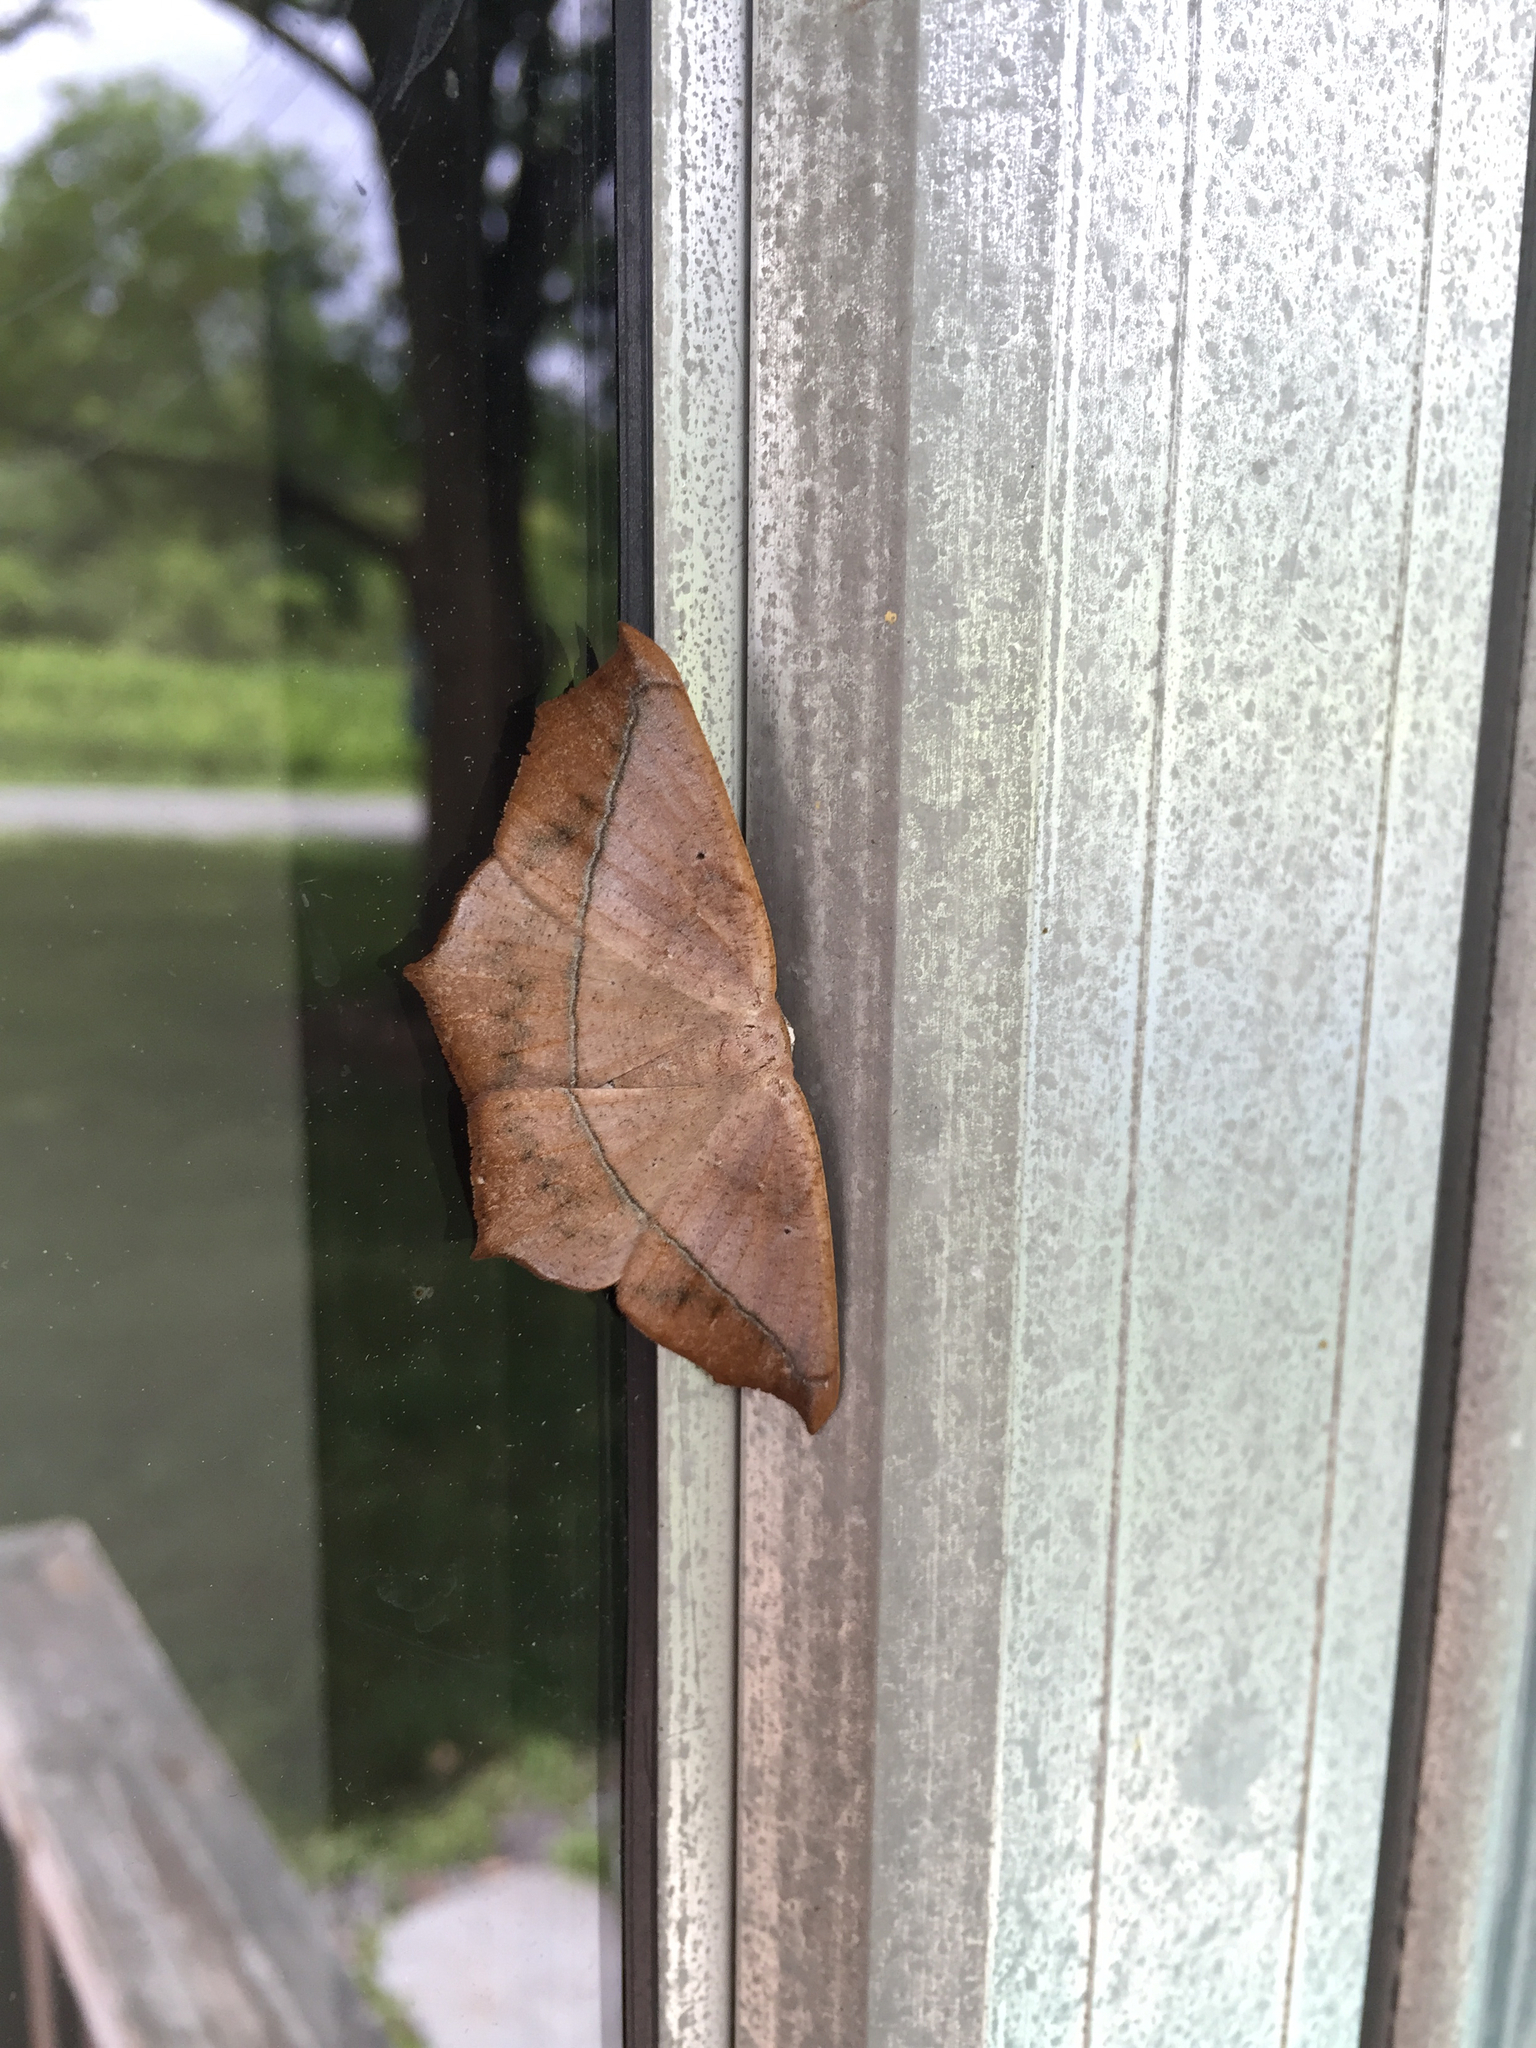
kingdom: Animalia
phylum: Arthropoda
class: Insecta
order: Lepidoptera
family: Geometridae
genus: Prochoerodes
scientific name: Prochoerodes lineola
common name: Large maple spanworm
